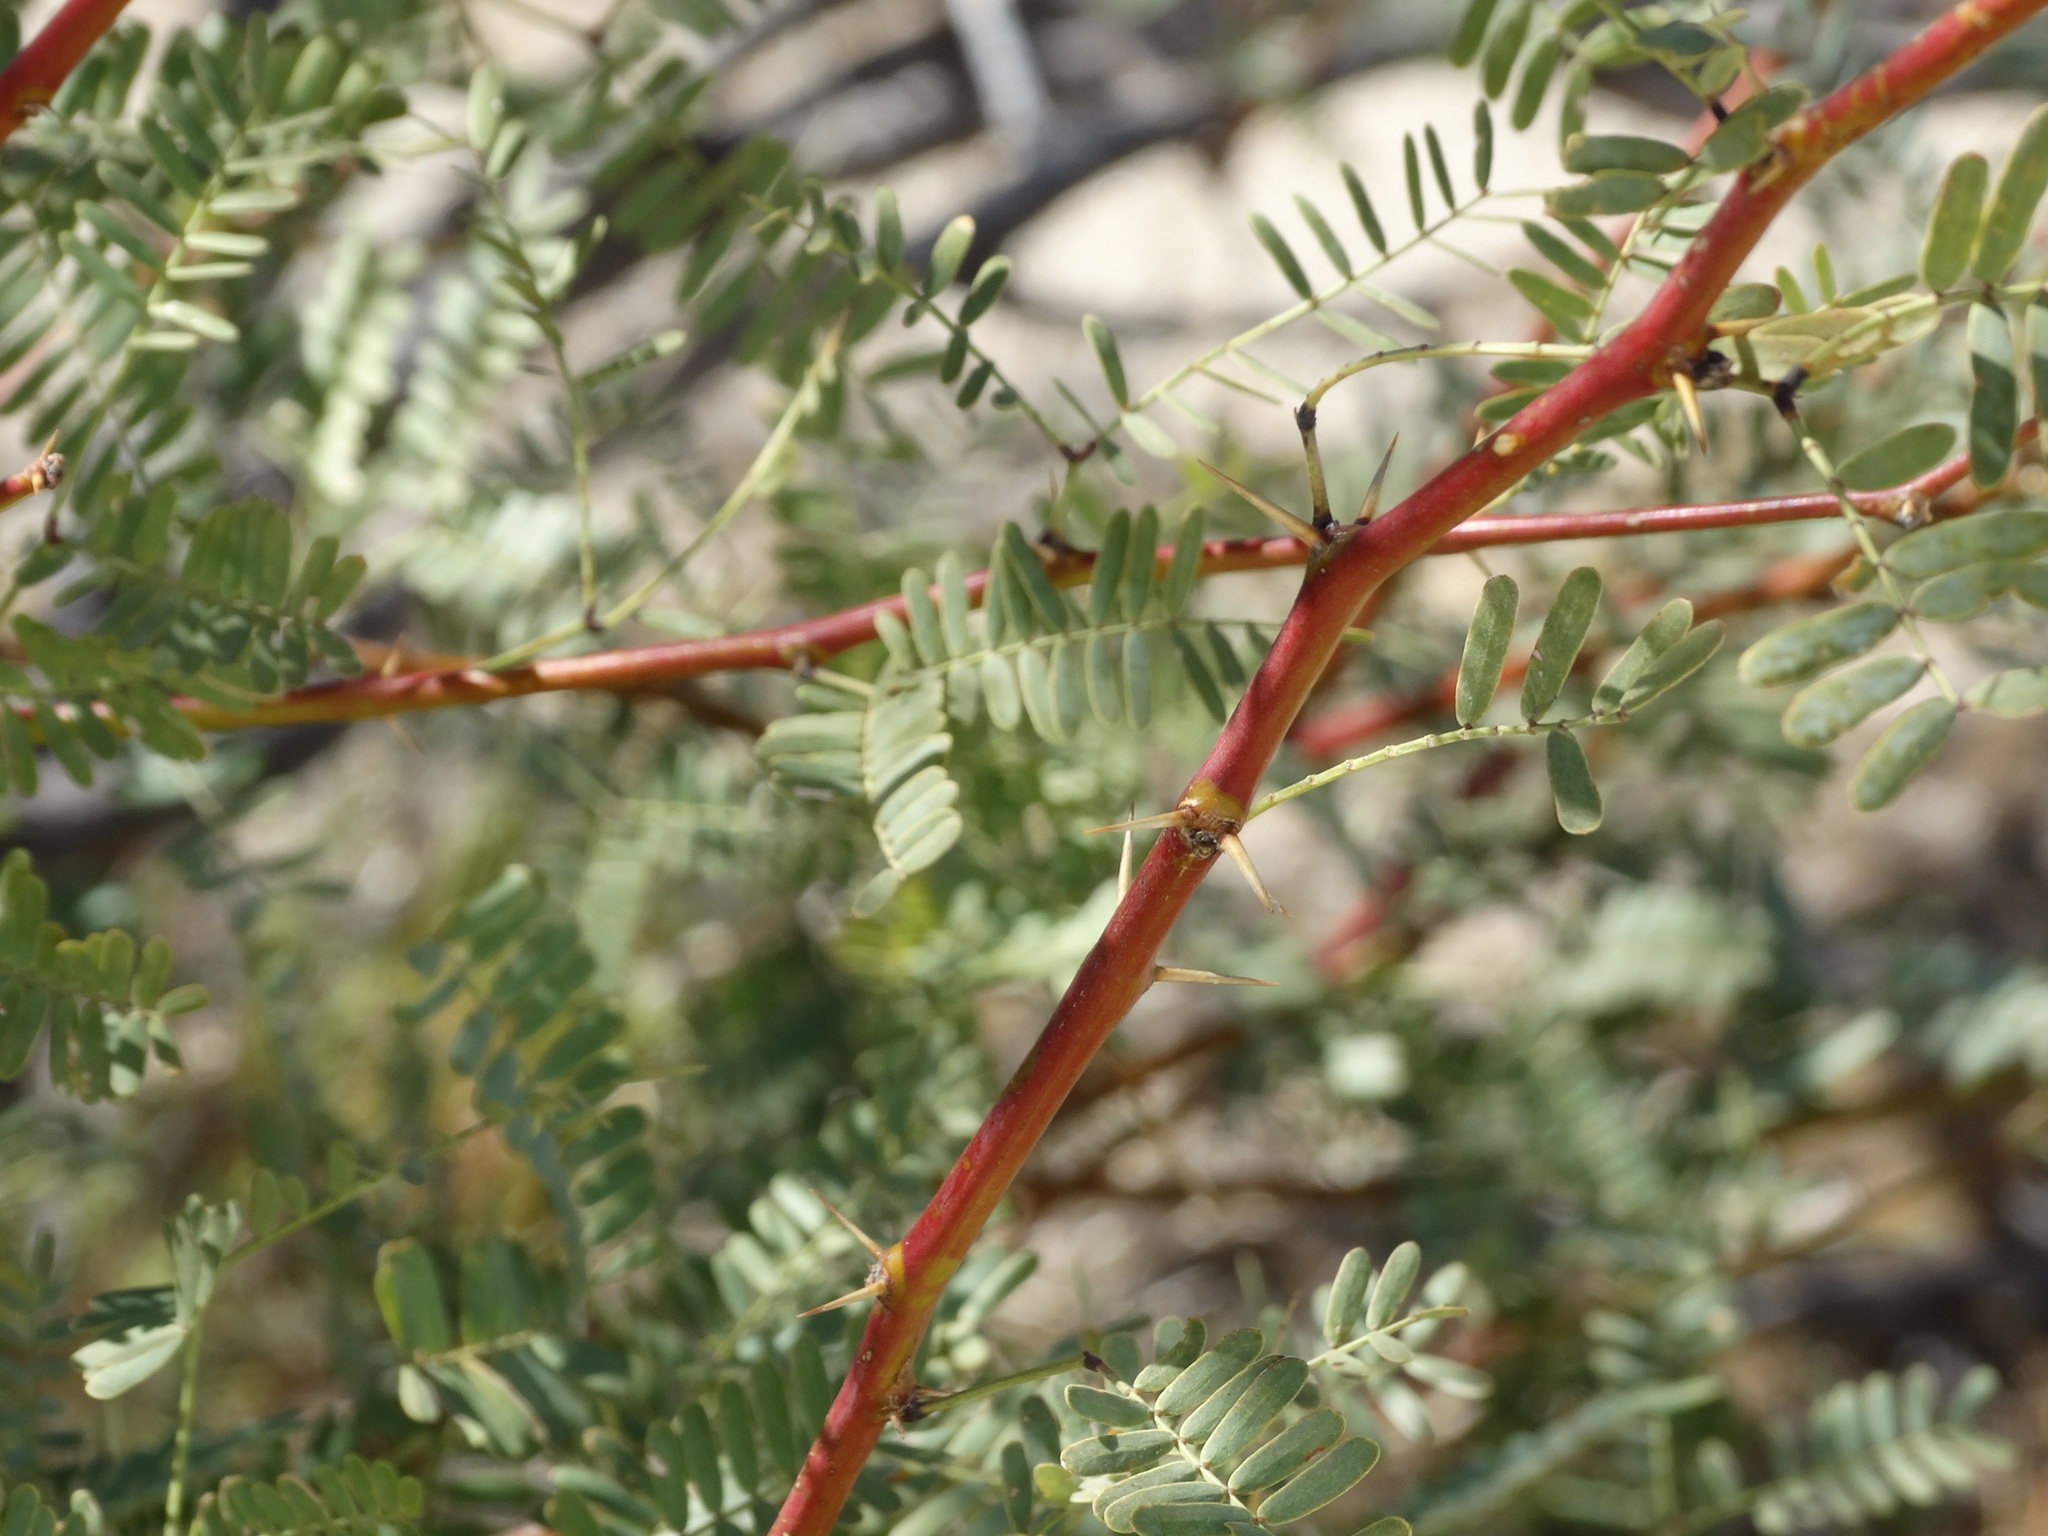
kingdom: Plantae
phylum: Tracheophyta
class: Magnoliopsida
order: Fabales
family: Fabaceae
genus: Prosopis
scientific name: Prosopis pubescens
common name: Screw-bean
